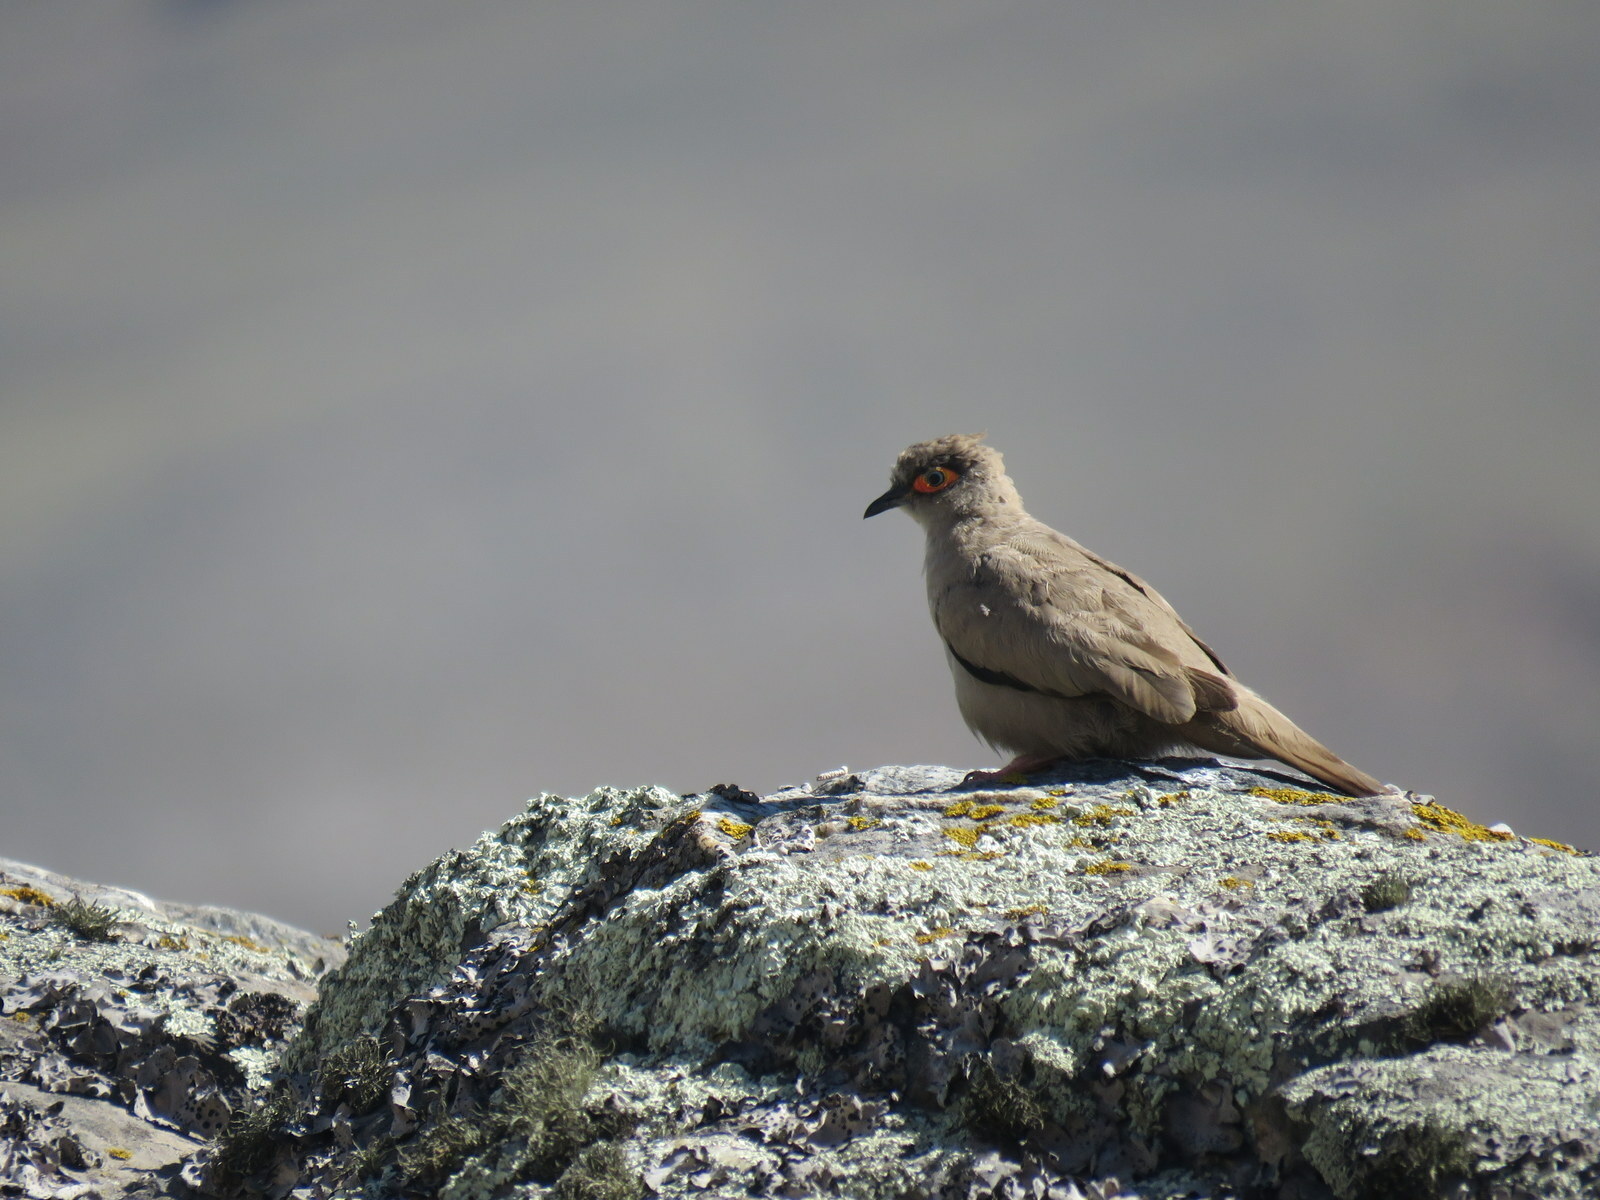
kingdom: Animalia
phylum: Chordata
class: Aves
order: Columbiformes
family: Columbidae
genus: Metriopelia
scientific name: Metriopelia morenoi
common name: Moreno's ground dove
